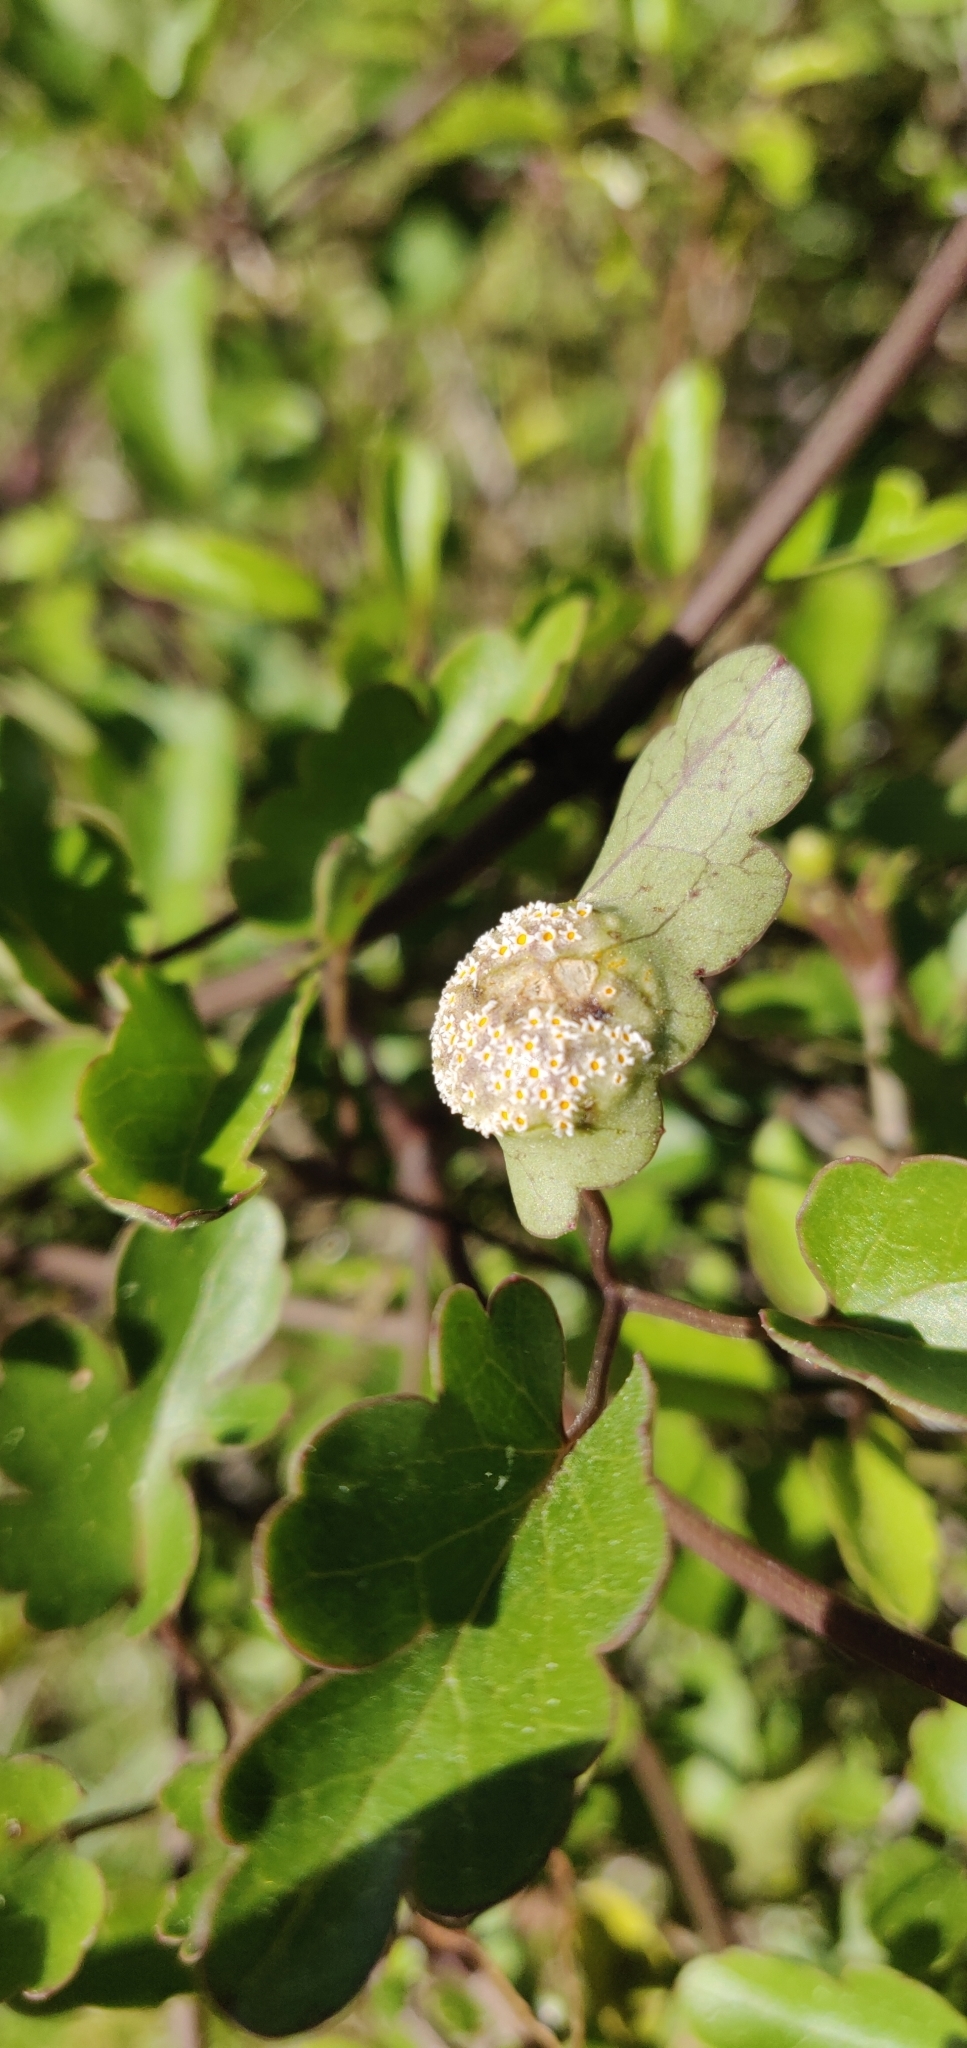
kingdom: Fungi
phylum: Basidiomycota
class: Pucciniomycetes
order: Pucciniales
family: Pucciniaceae
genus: Puccinia
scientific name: Puccinia otagensis
